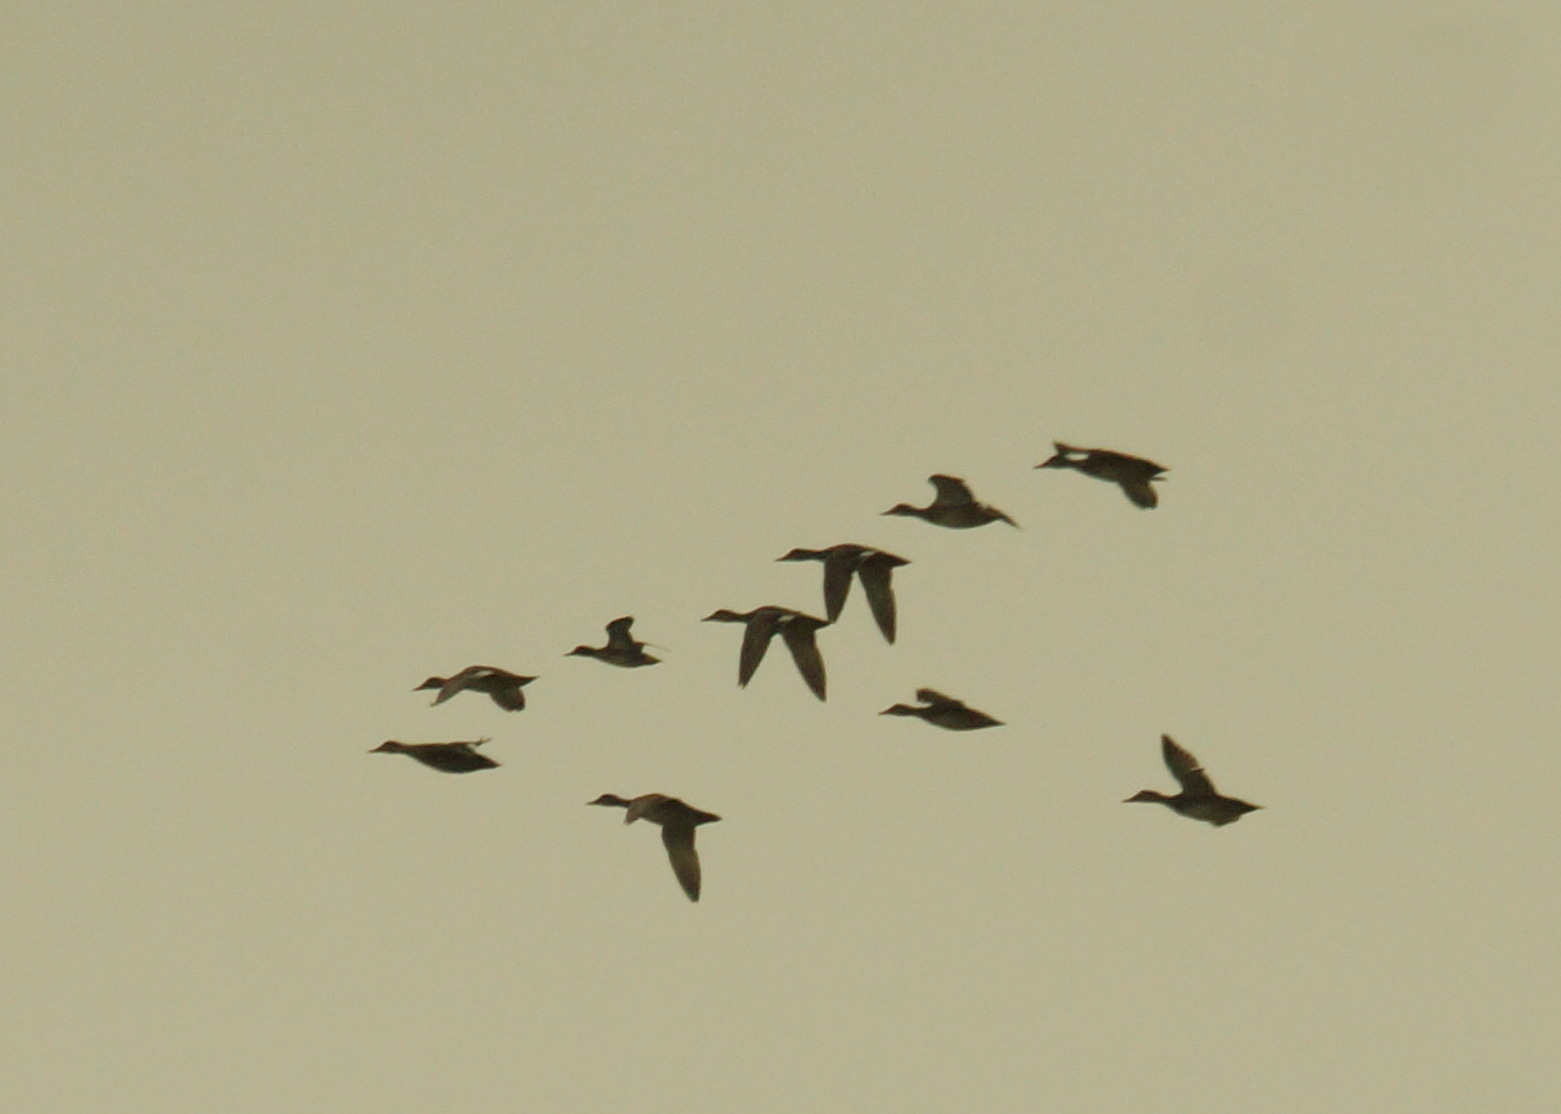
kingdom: Animalia
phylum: Chordata
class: Aves
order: Anseriformes
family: Anatidae
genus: Mareca
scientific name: Mareca strepera
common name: Gadwall
